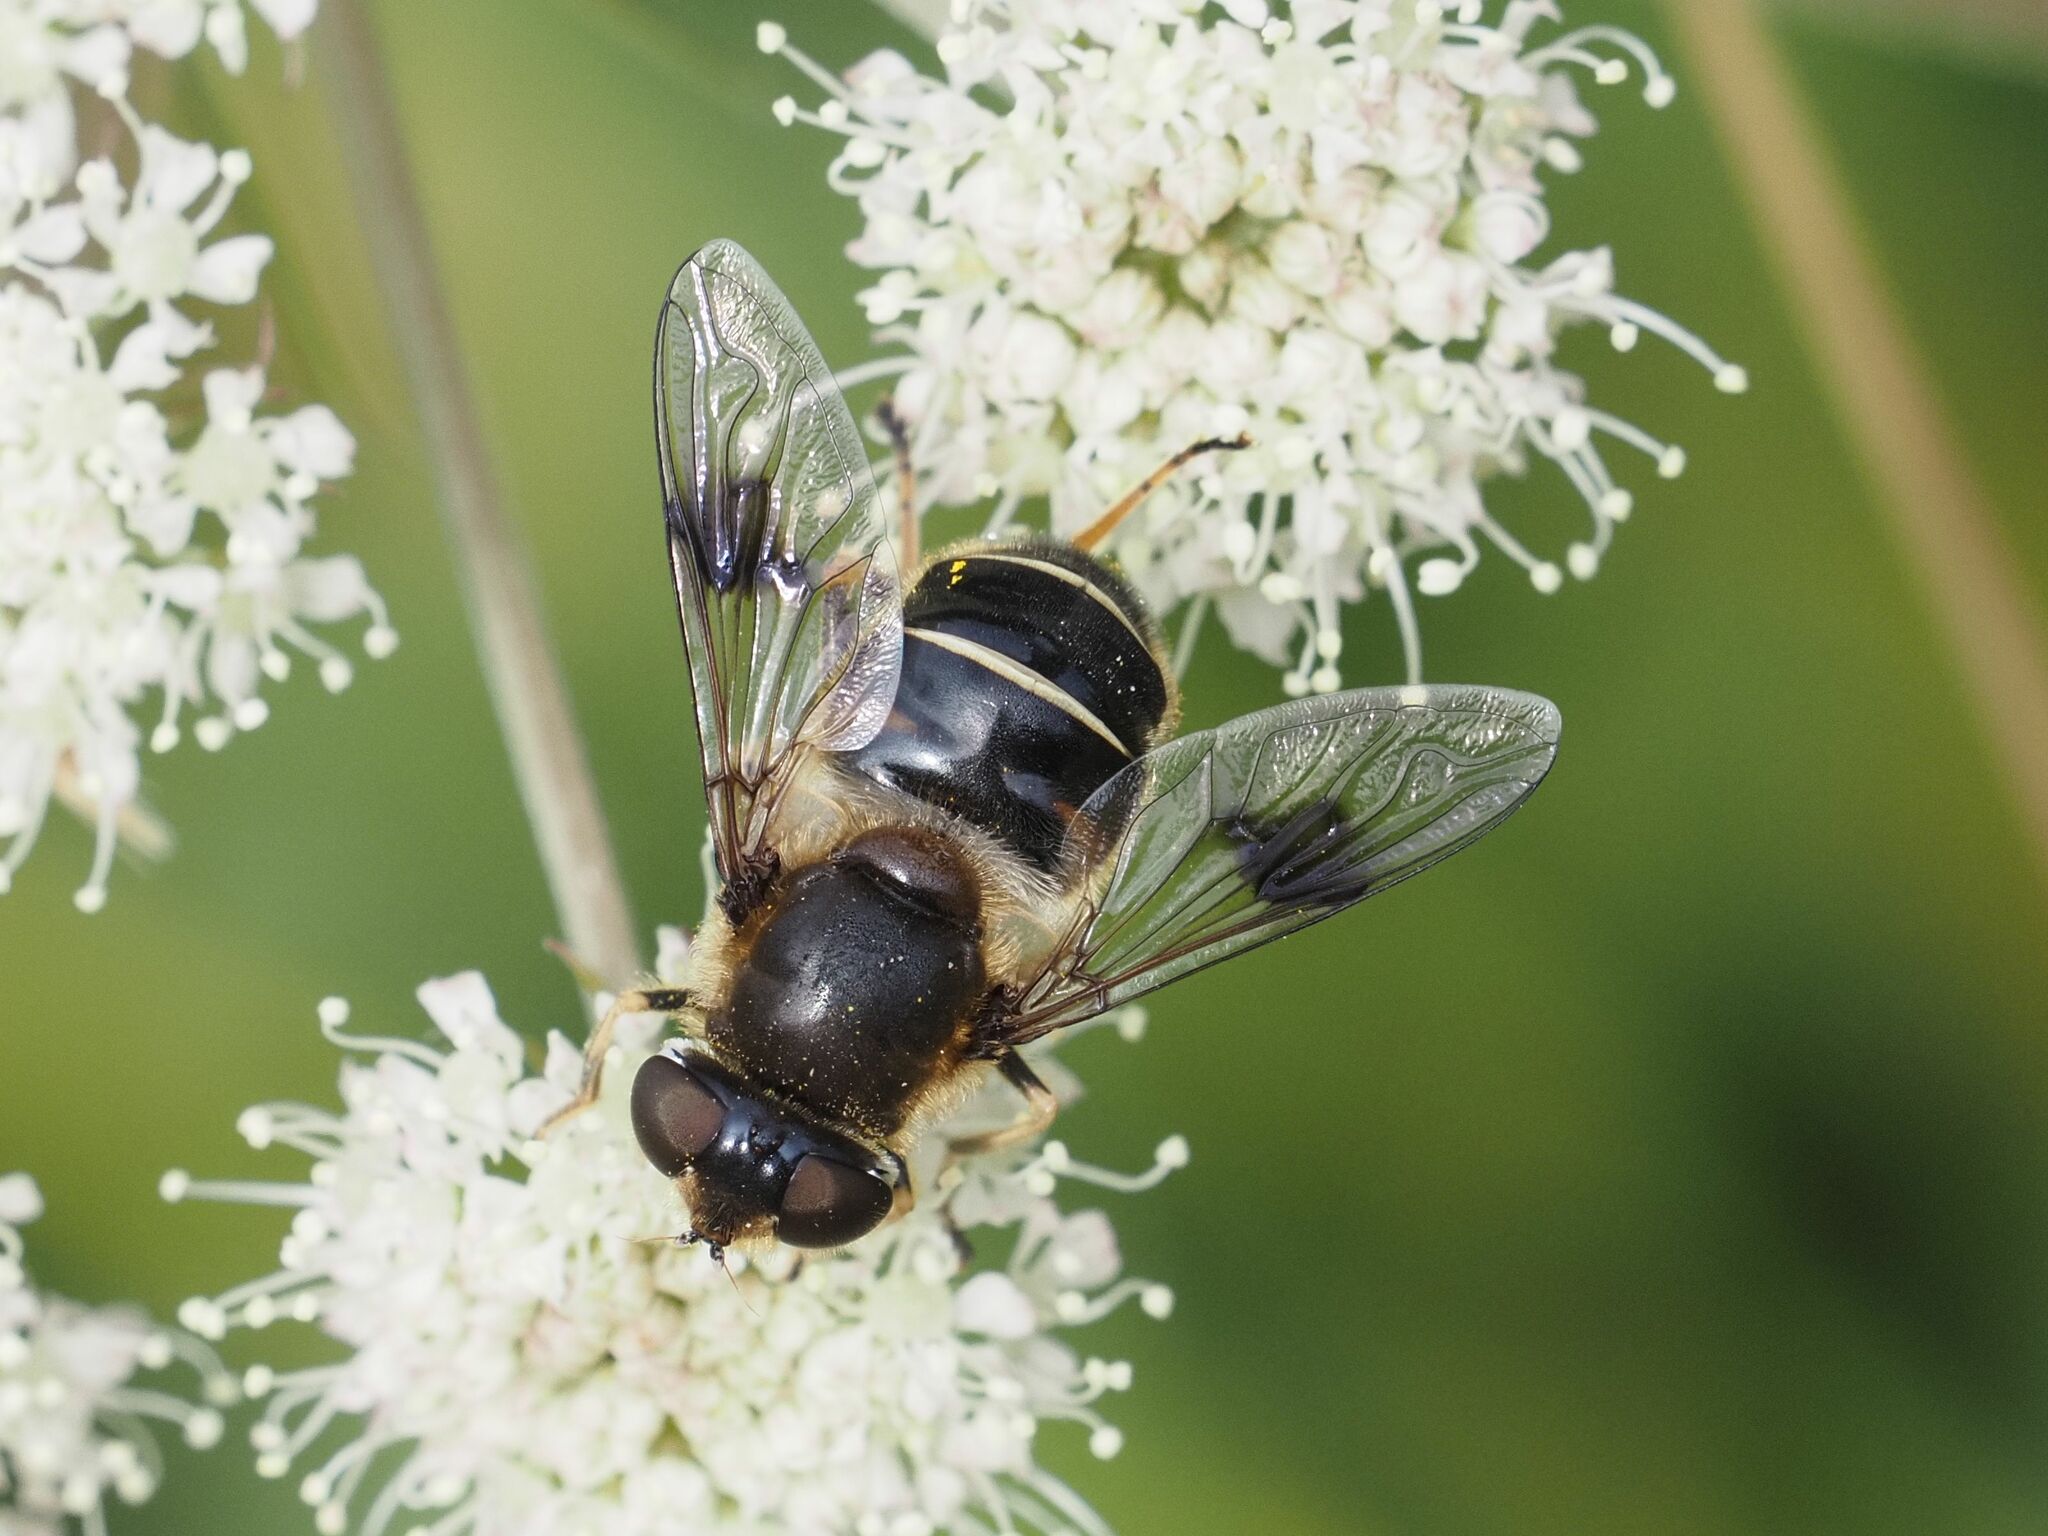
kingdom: Animalia
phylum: Arthropoda
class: Insecta
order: Diptera
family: Syrphidae
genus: Eristalis
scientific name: Eristalis rupium
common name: Hover fly
